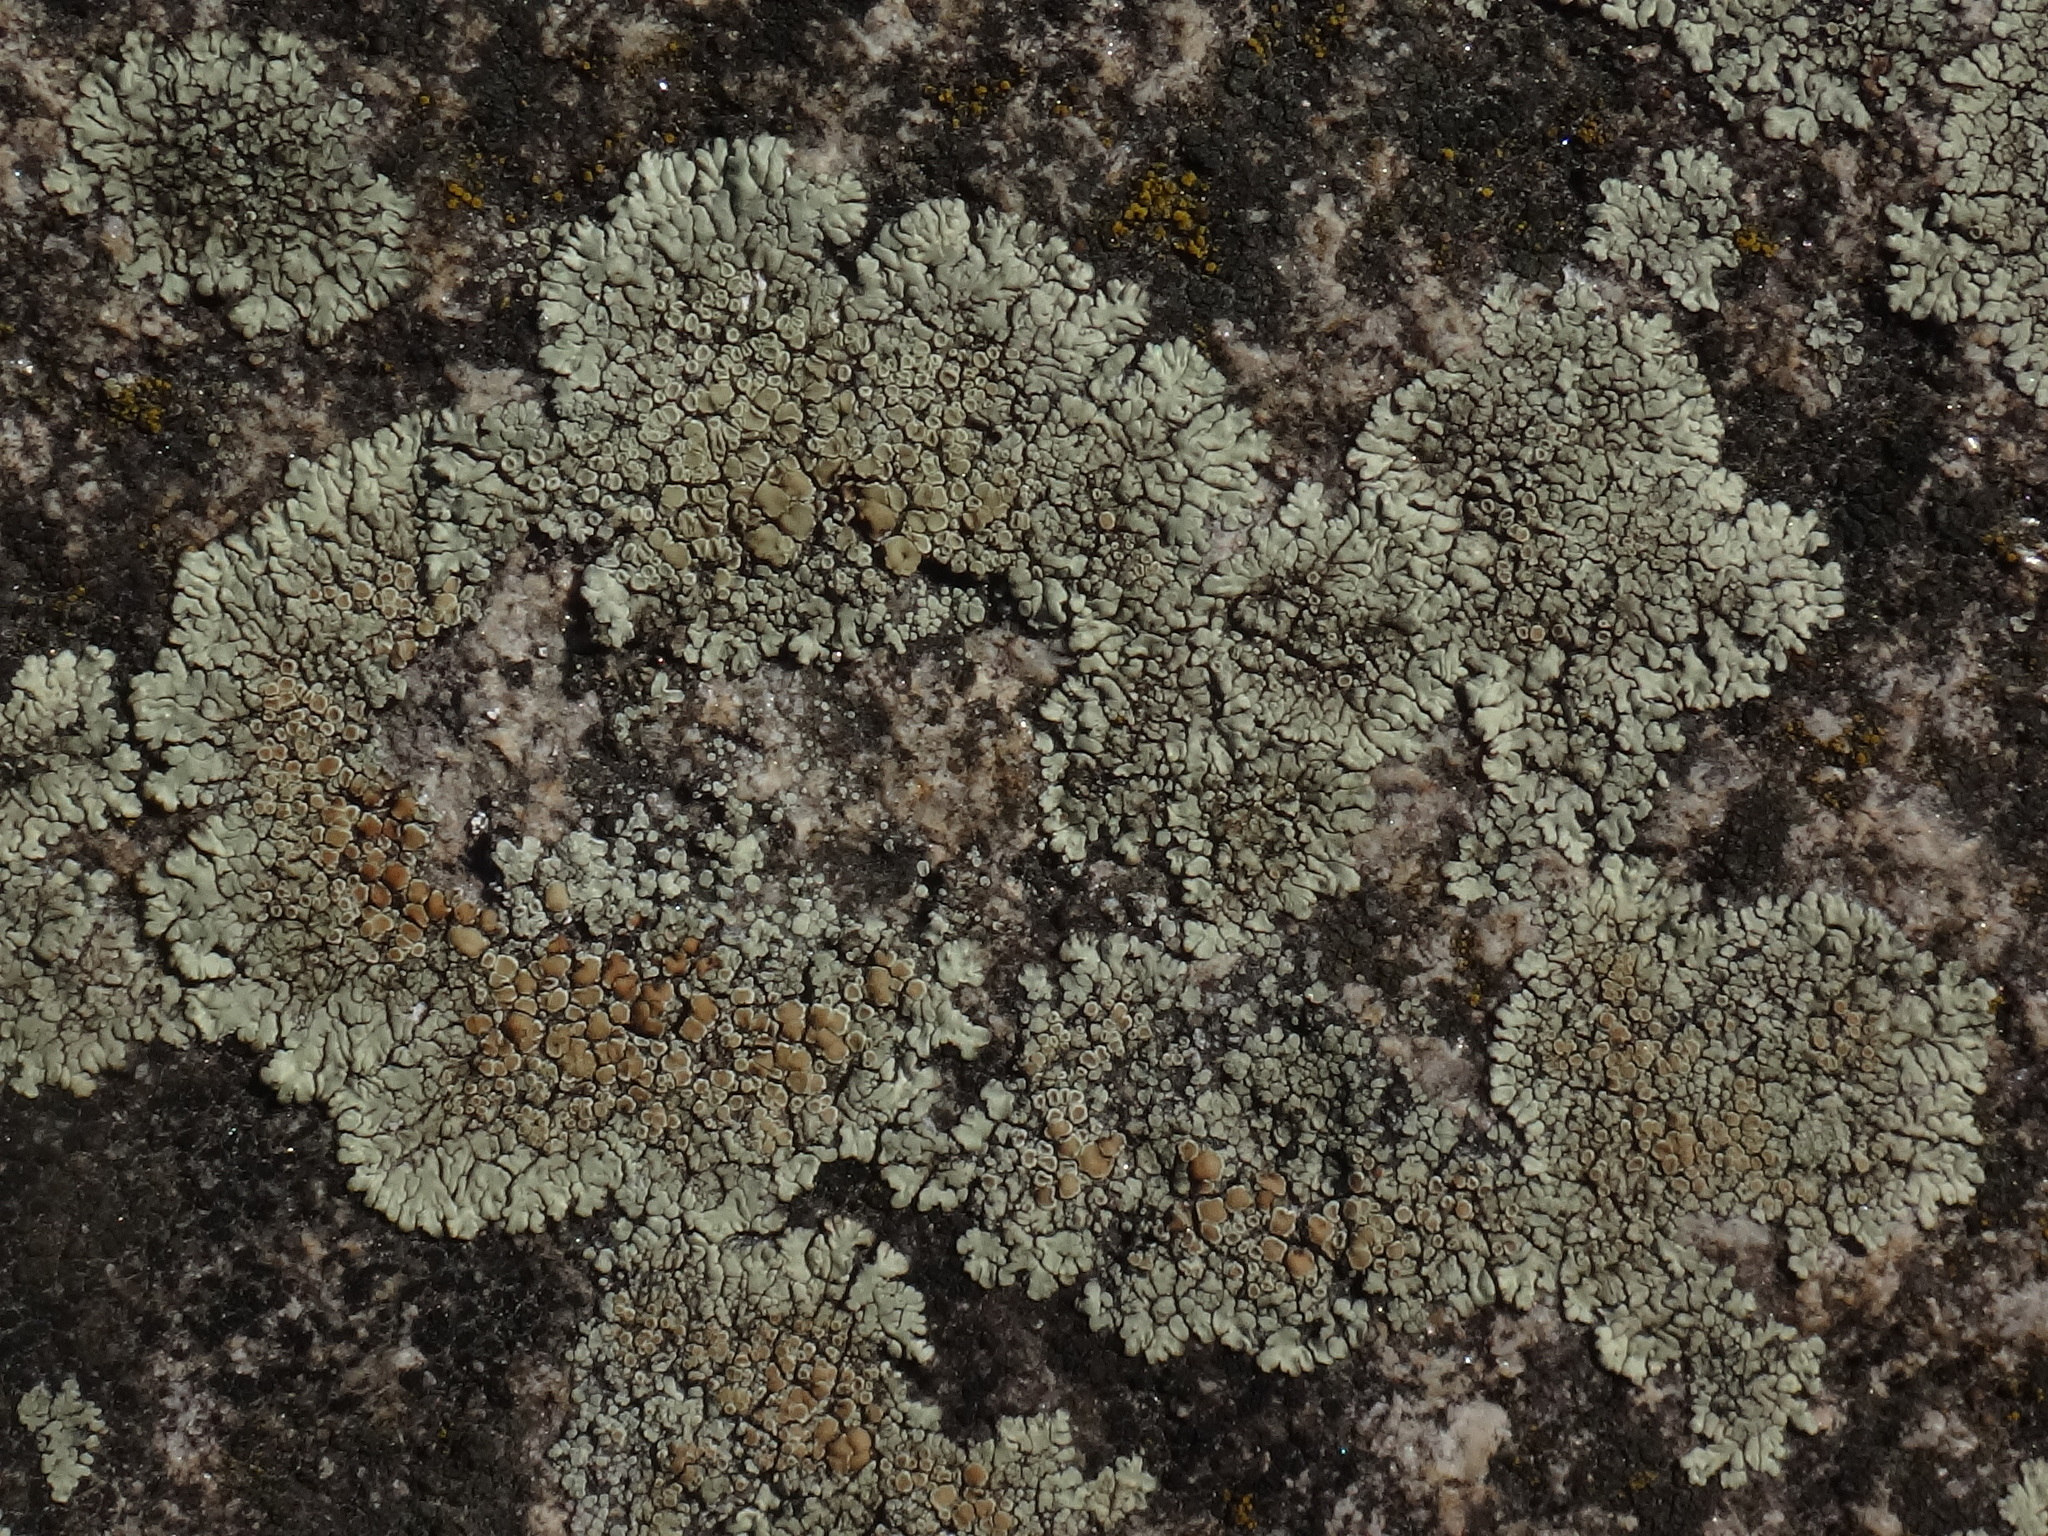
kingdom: Fungi
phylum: Ascomycota
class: Lecanoromycetes
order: Lecanorales
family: Lecanoraceae
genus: Protoparmeliopsis
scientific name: Protoparmeliopsis muralis
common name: Stonewall rim lichen
